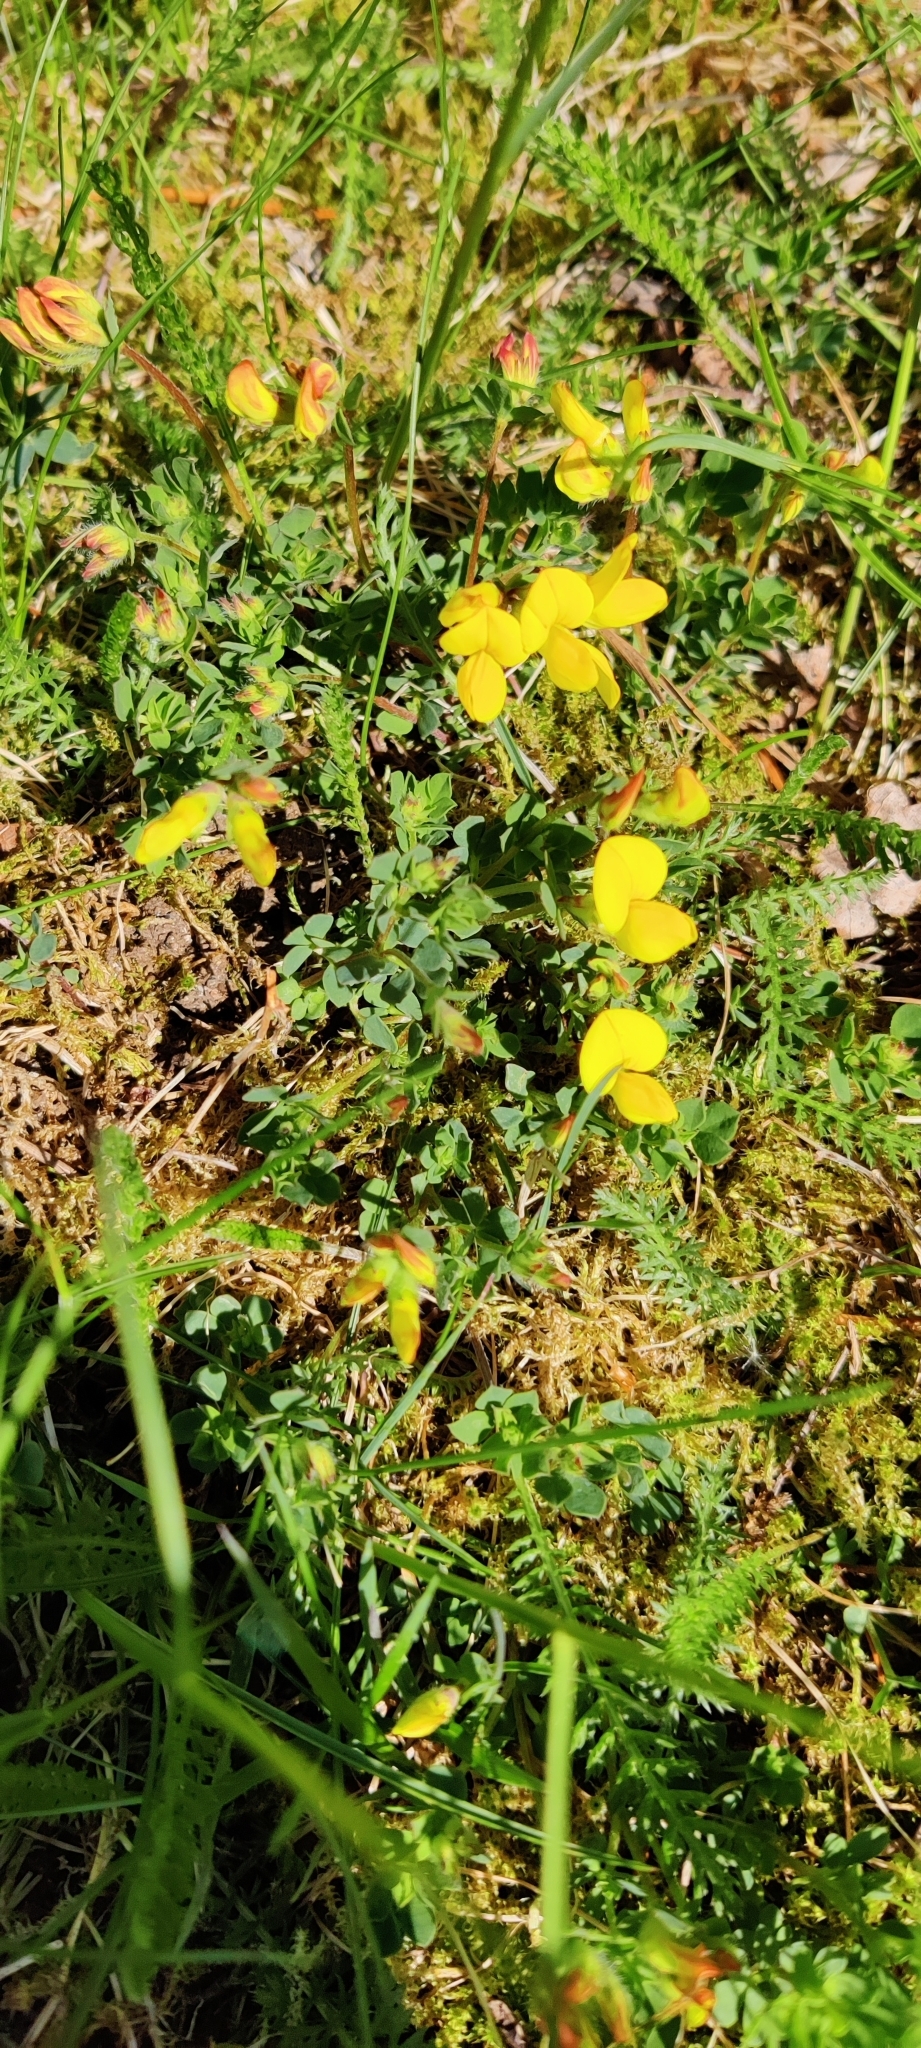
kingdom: Plantae
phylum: Tracheophyta
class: Magnoliopsida
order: Fabales
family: Fabaceae
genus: Lotus
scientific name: Lotus corniculatus
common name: Common bird's-foot-trefoil
